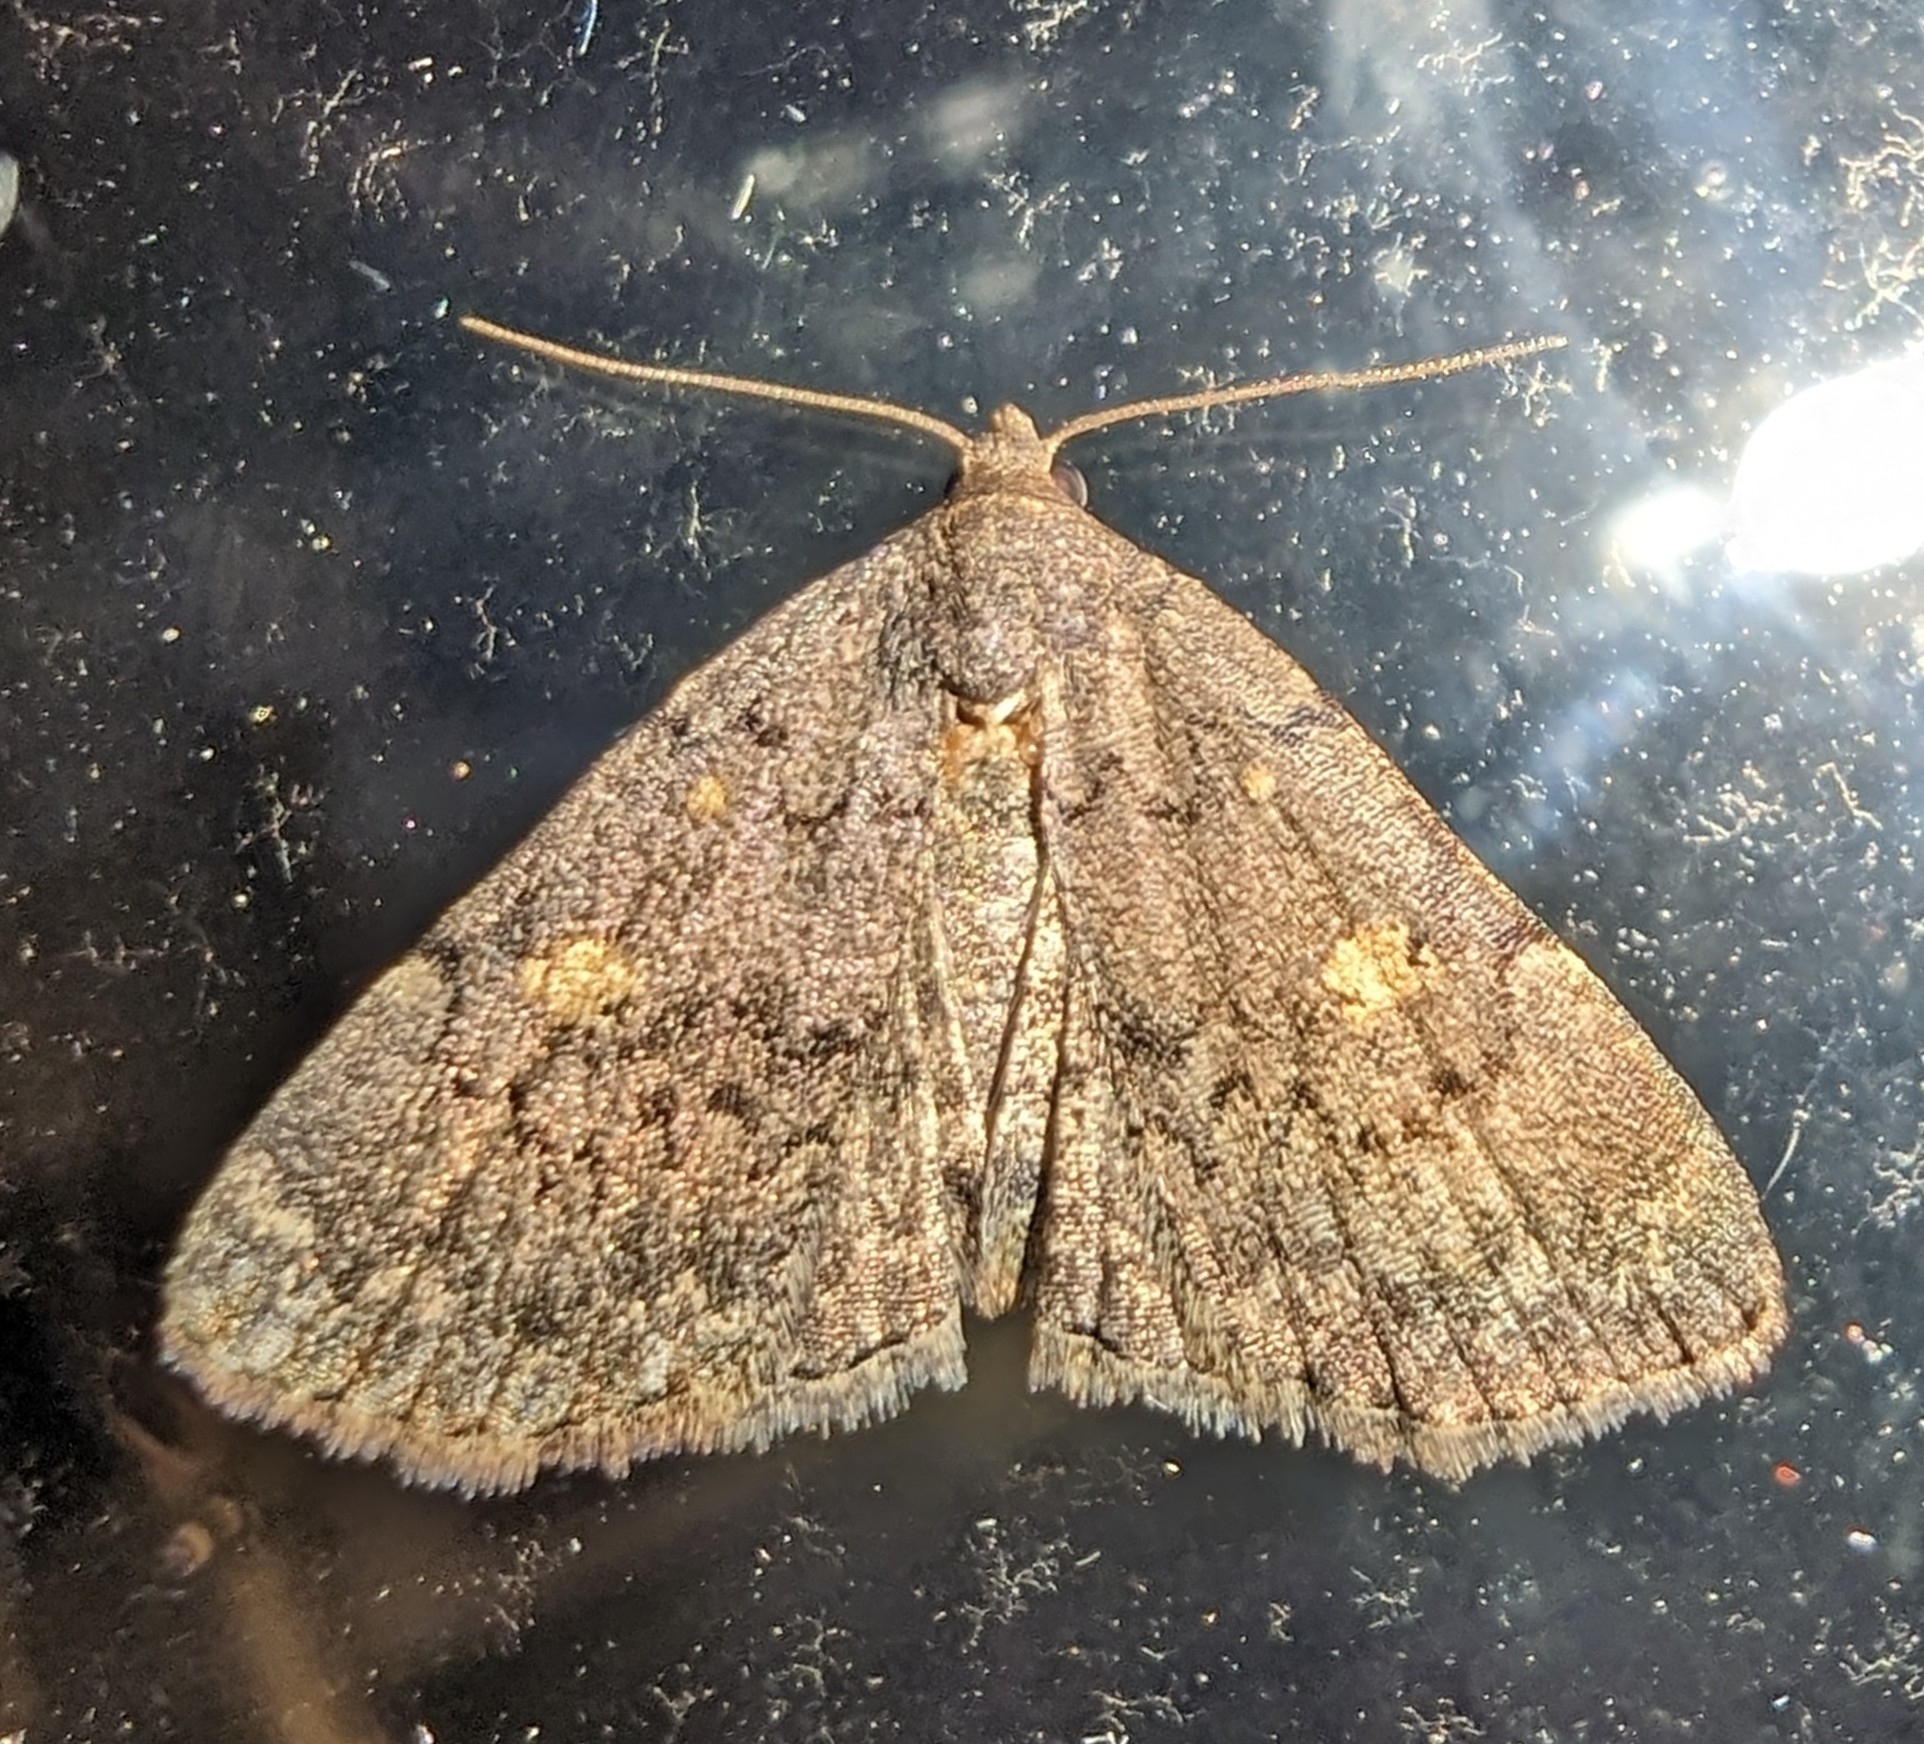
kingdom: Animalia
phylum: Arthropoda
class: Insecta
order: Lepidoptera
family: Erebidae
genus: Idia
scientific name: Idia aemula
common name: Common idia moth
